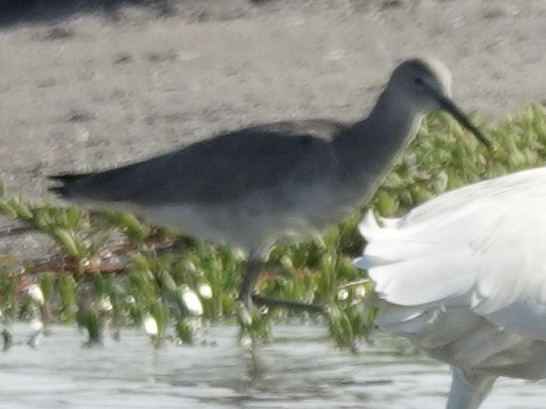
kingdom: Animalia
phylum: Chordata
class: Aves
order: Charadriiformes
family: Scolopacidae
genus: Tringa
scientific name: Tringa semipalmata
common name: Willet
